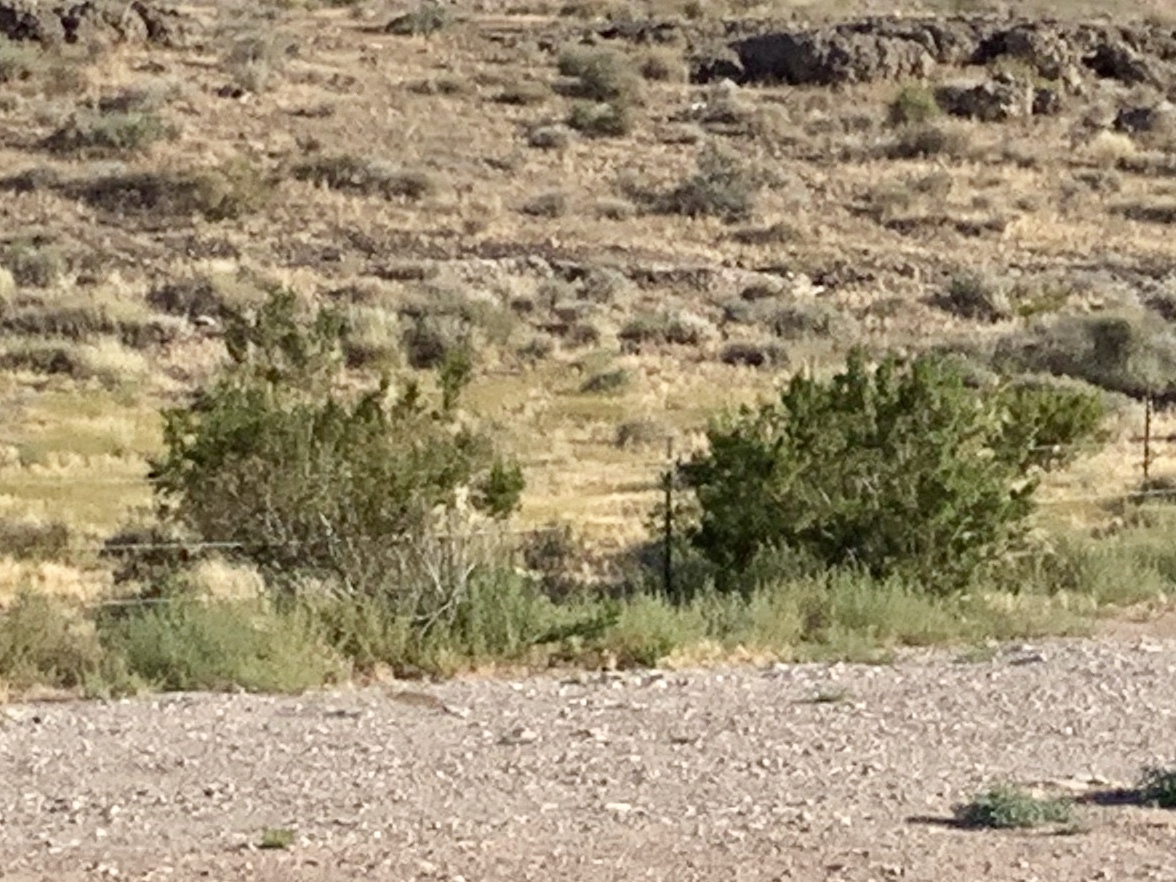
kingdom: Plantae
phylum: Tracheophyta
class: Magnoliopsida
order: Zygophyllales
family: Zygophyllaceae
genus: Larrea
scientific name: Larrea tridentata
